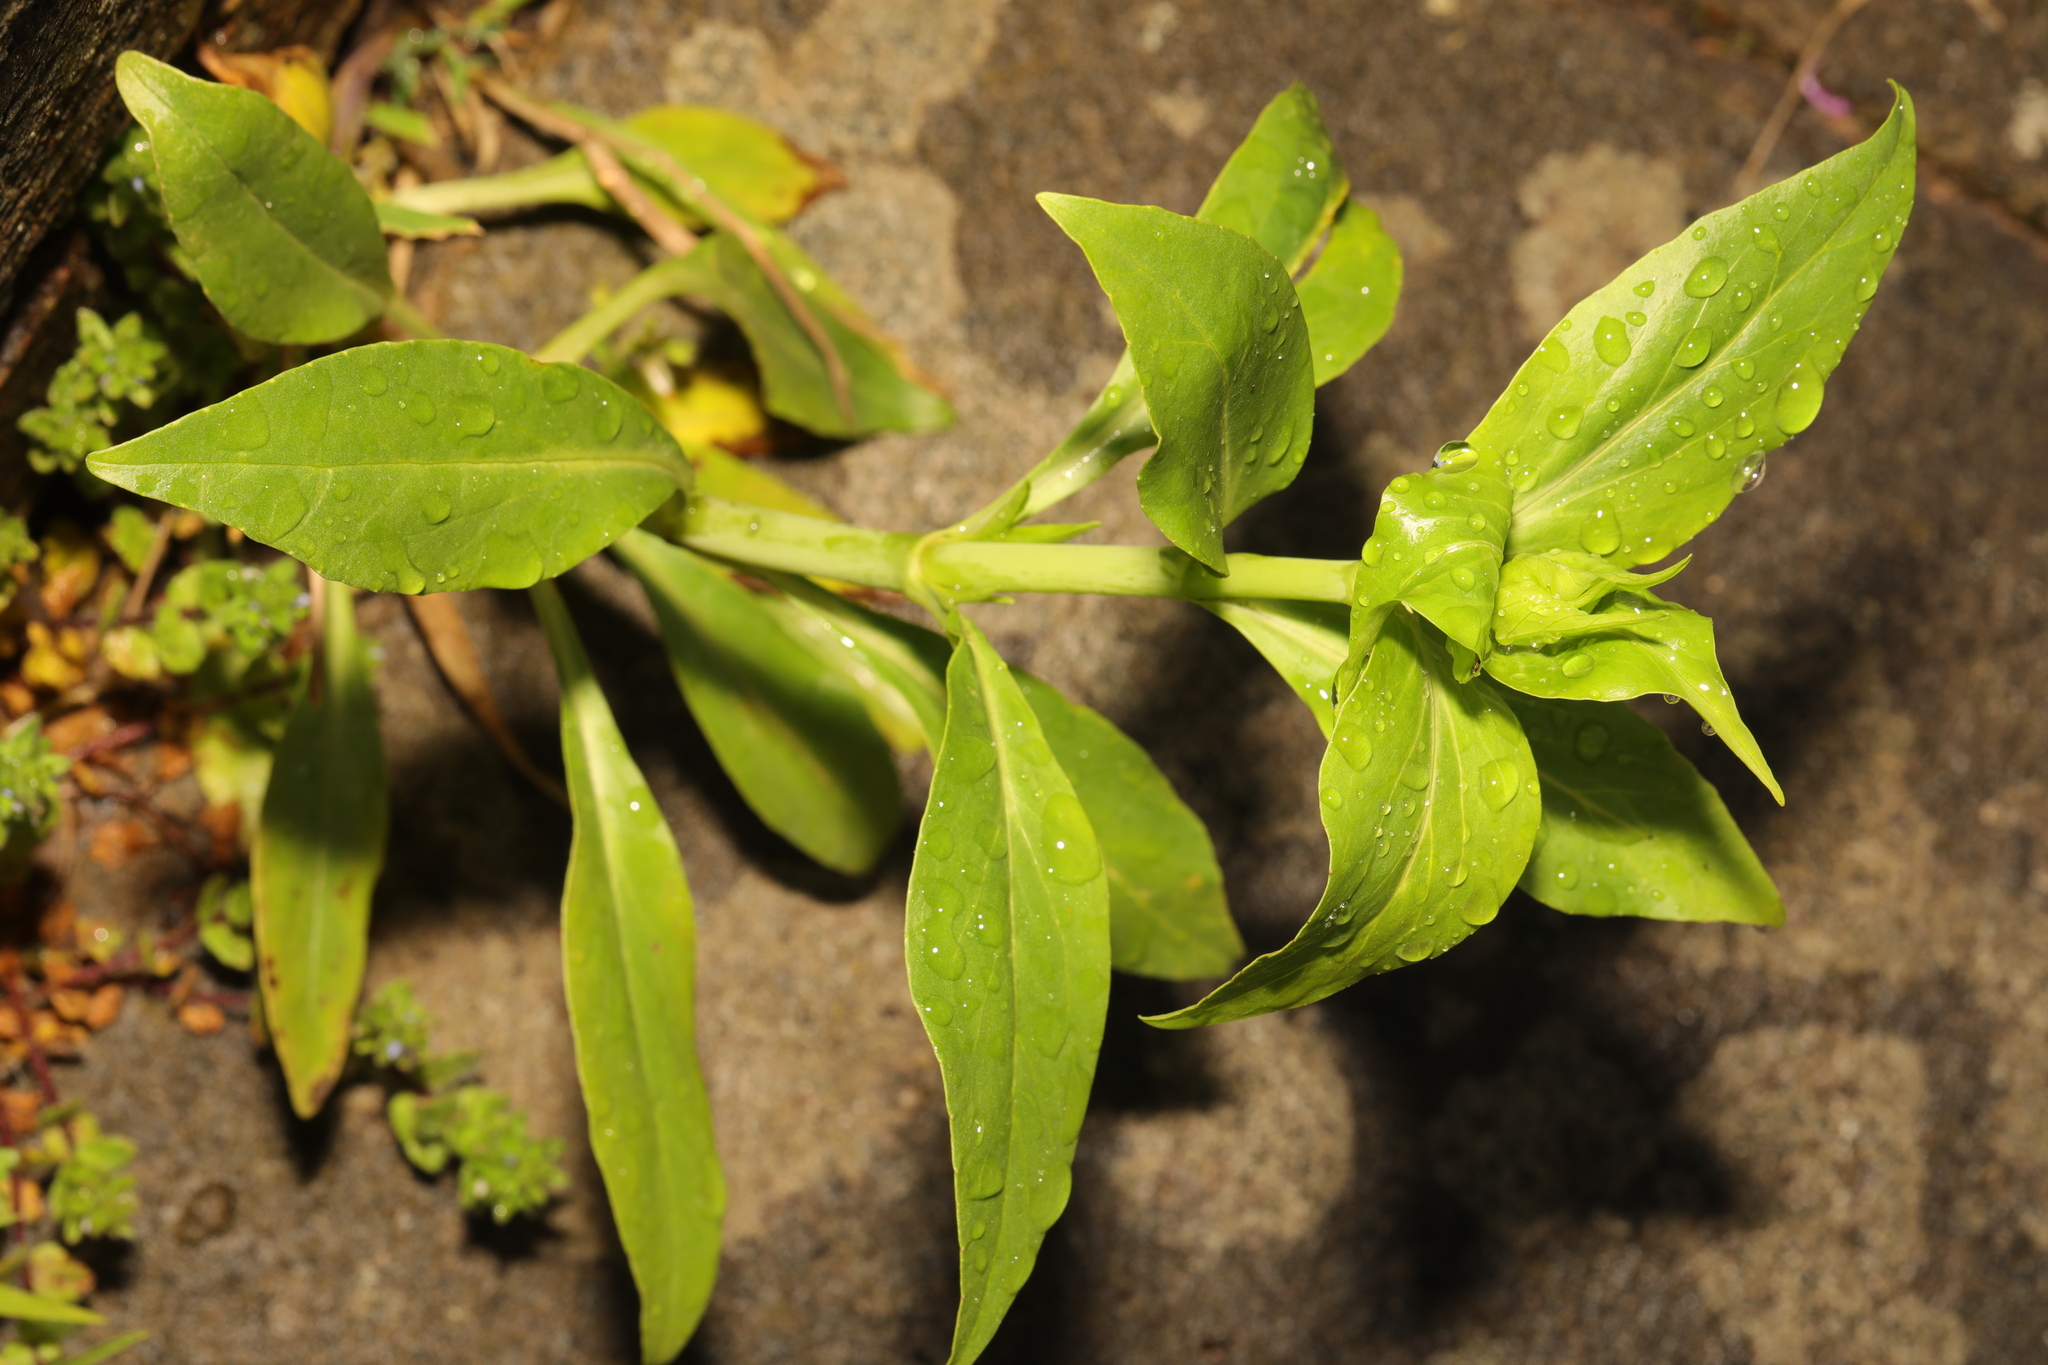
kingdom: Plantae
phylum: Tracheophyta
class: Magnoliopsida
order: Dipsacales
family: Caprifoliaceae
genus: Centranthus
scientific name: Centranthus ruber
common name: Red valerian
